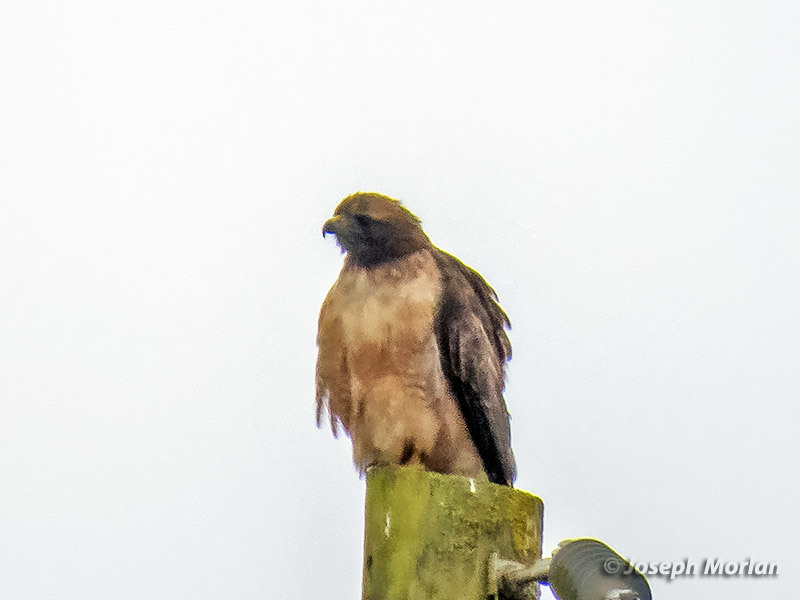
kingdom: Animalia
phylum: Chordata
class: Aves
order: Accipitriformes
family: Accipitridae
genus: Buteo
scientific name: Buteo jamaicensis
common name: Red-tailed hawk
